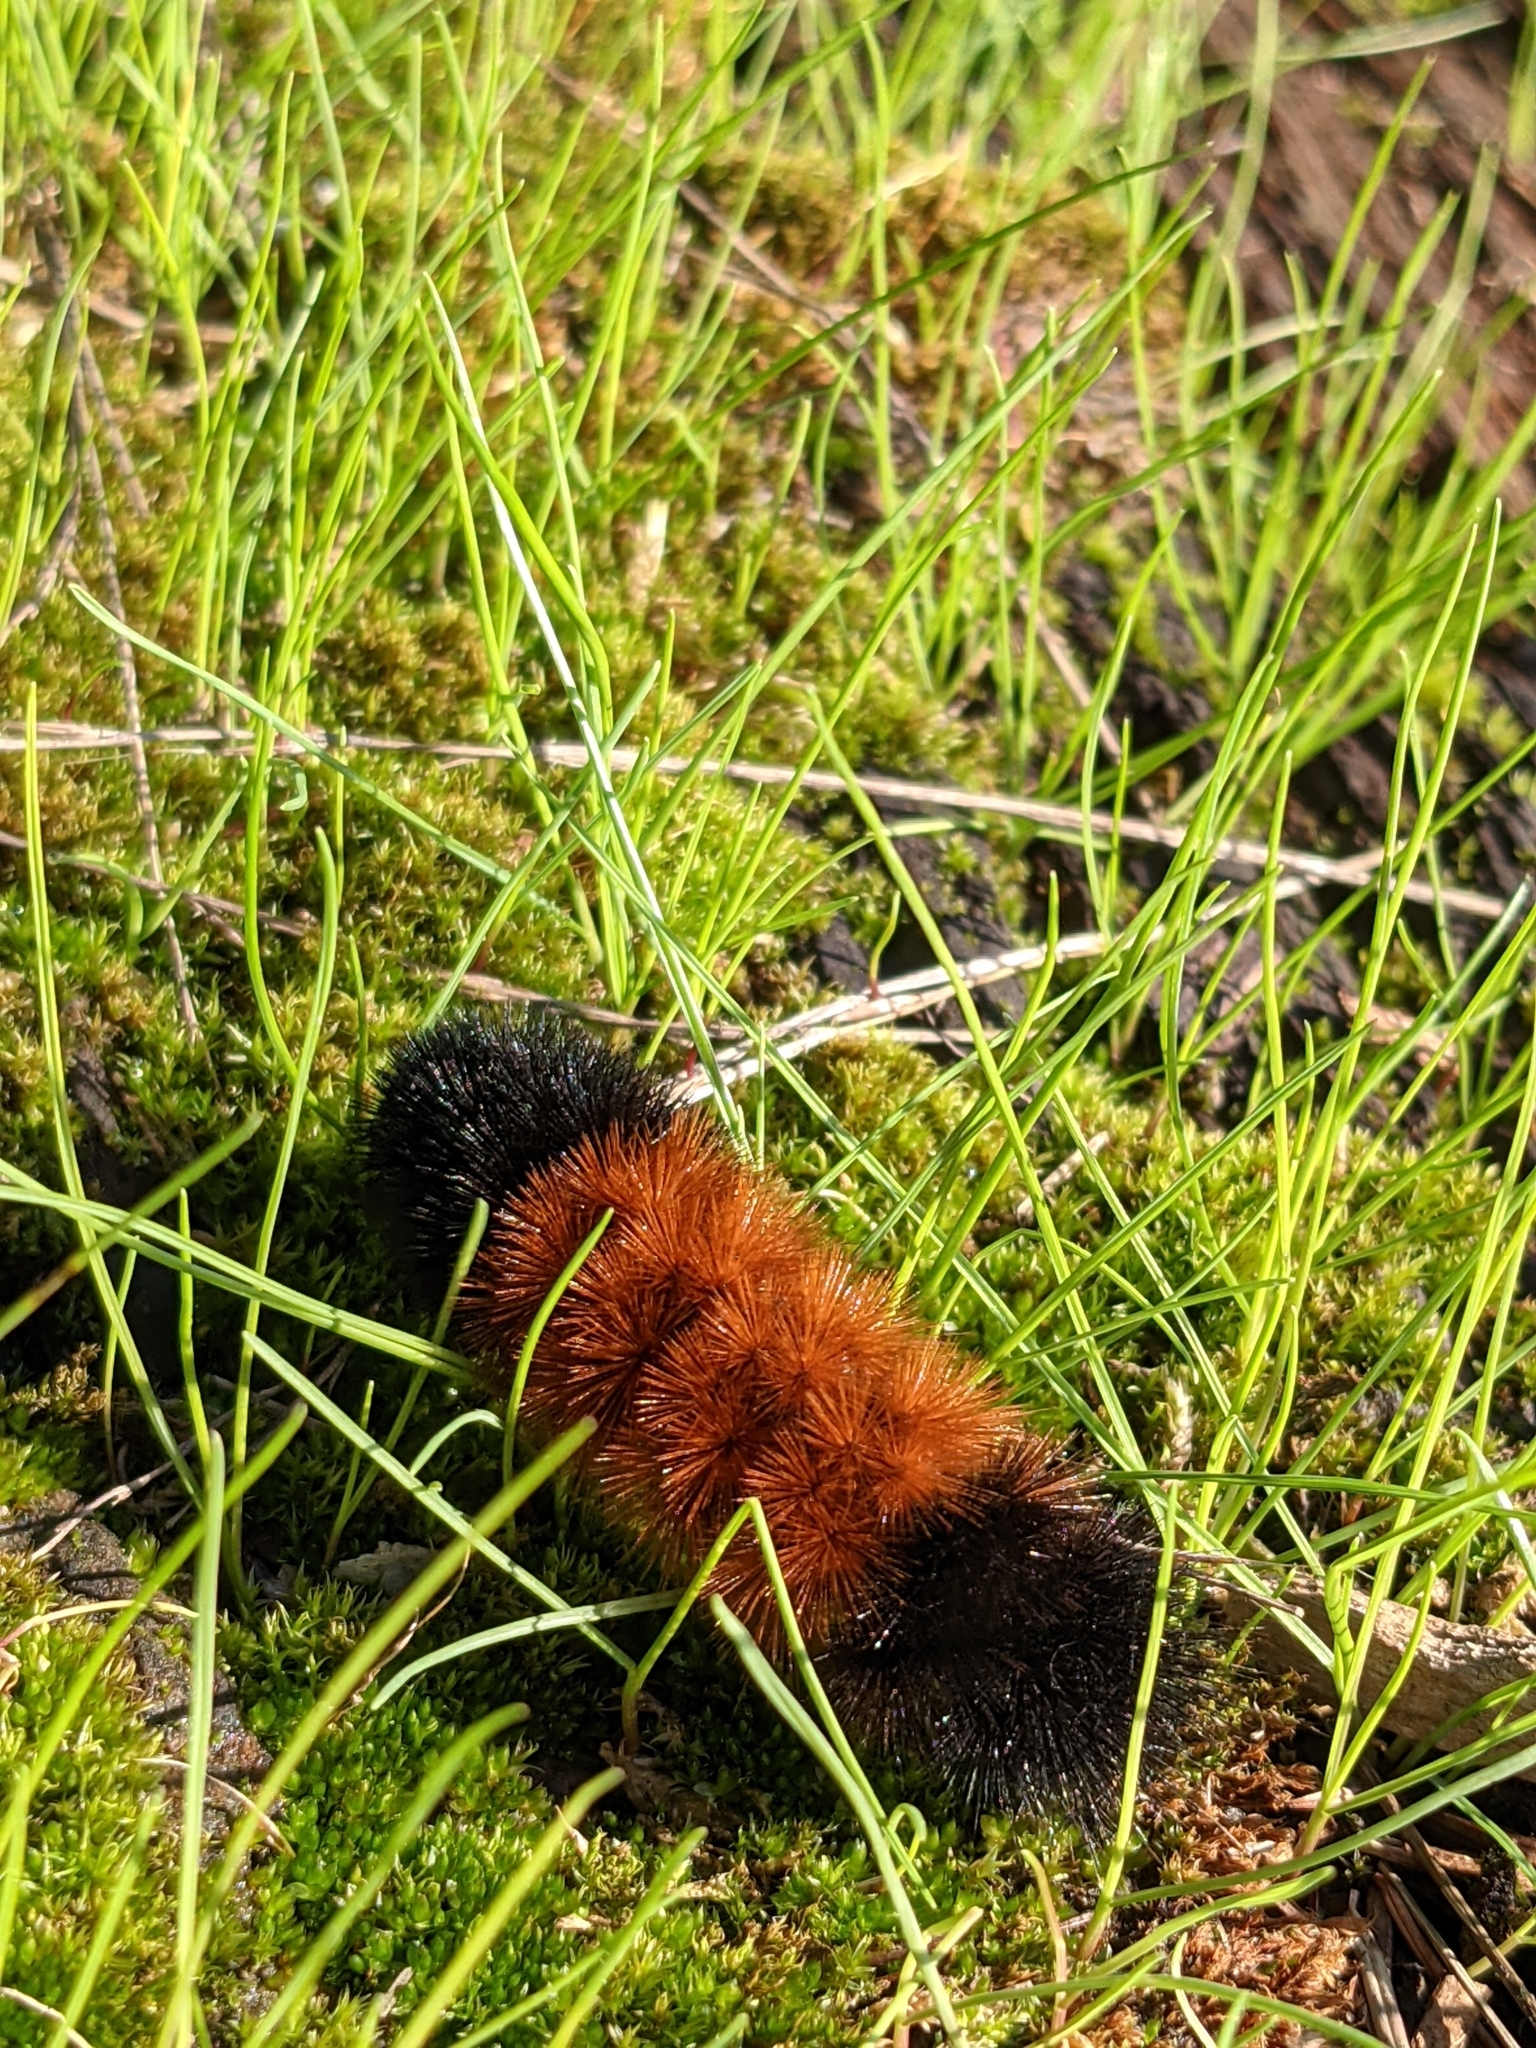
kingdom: Animalia
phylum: Arthropoda
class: Insecta
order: Lepidoptera
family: Erebidae
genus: Pyrrharctia
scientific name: Pyrrharctia isabella
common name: Isabella tiger moth
